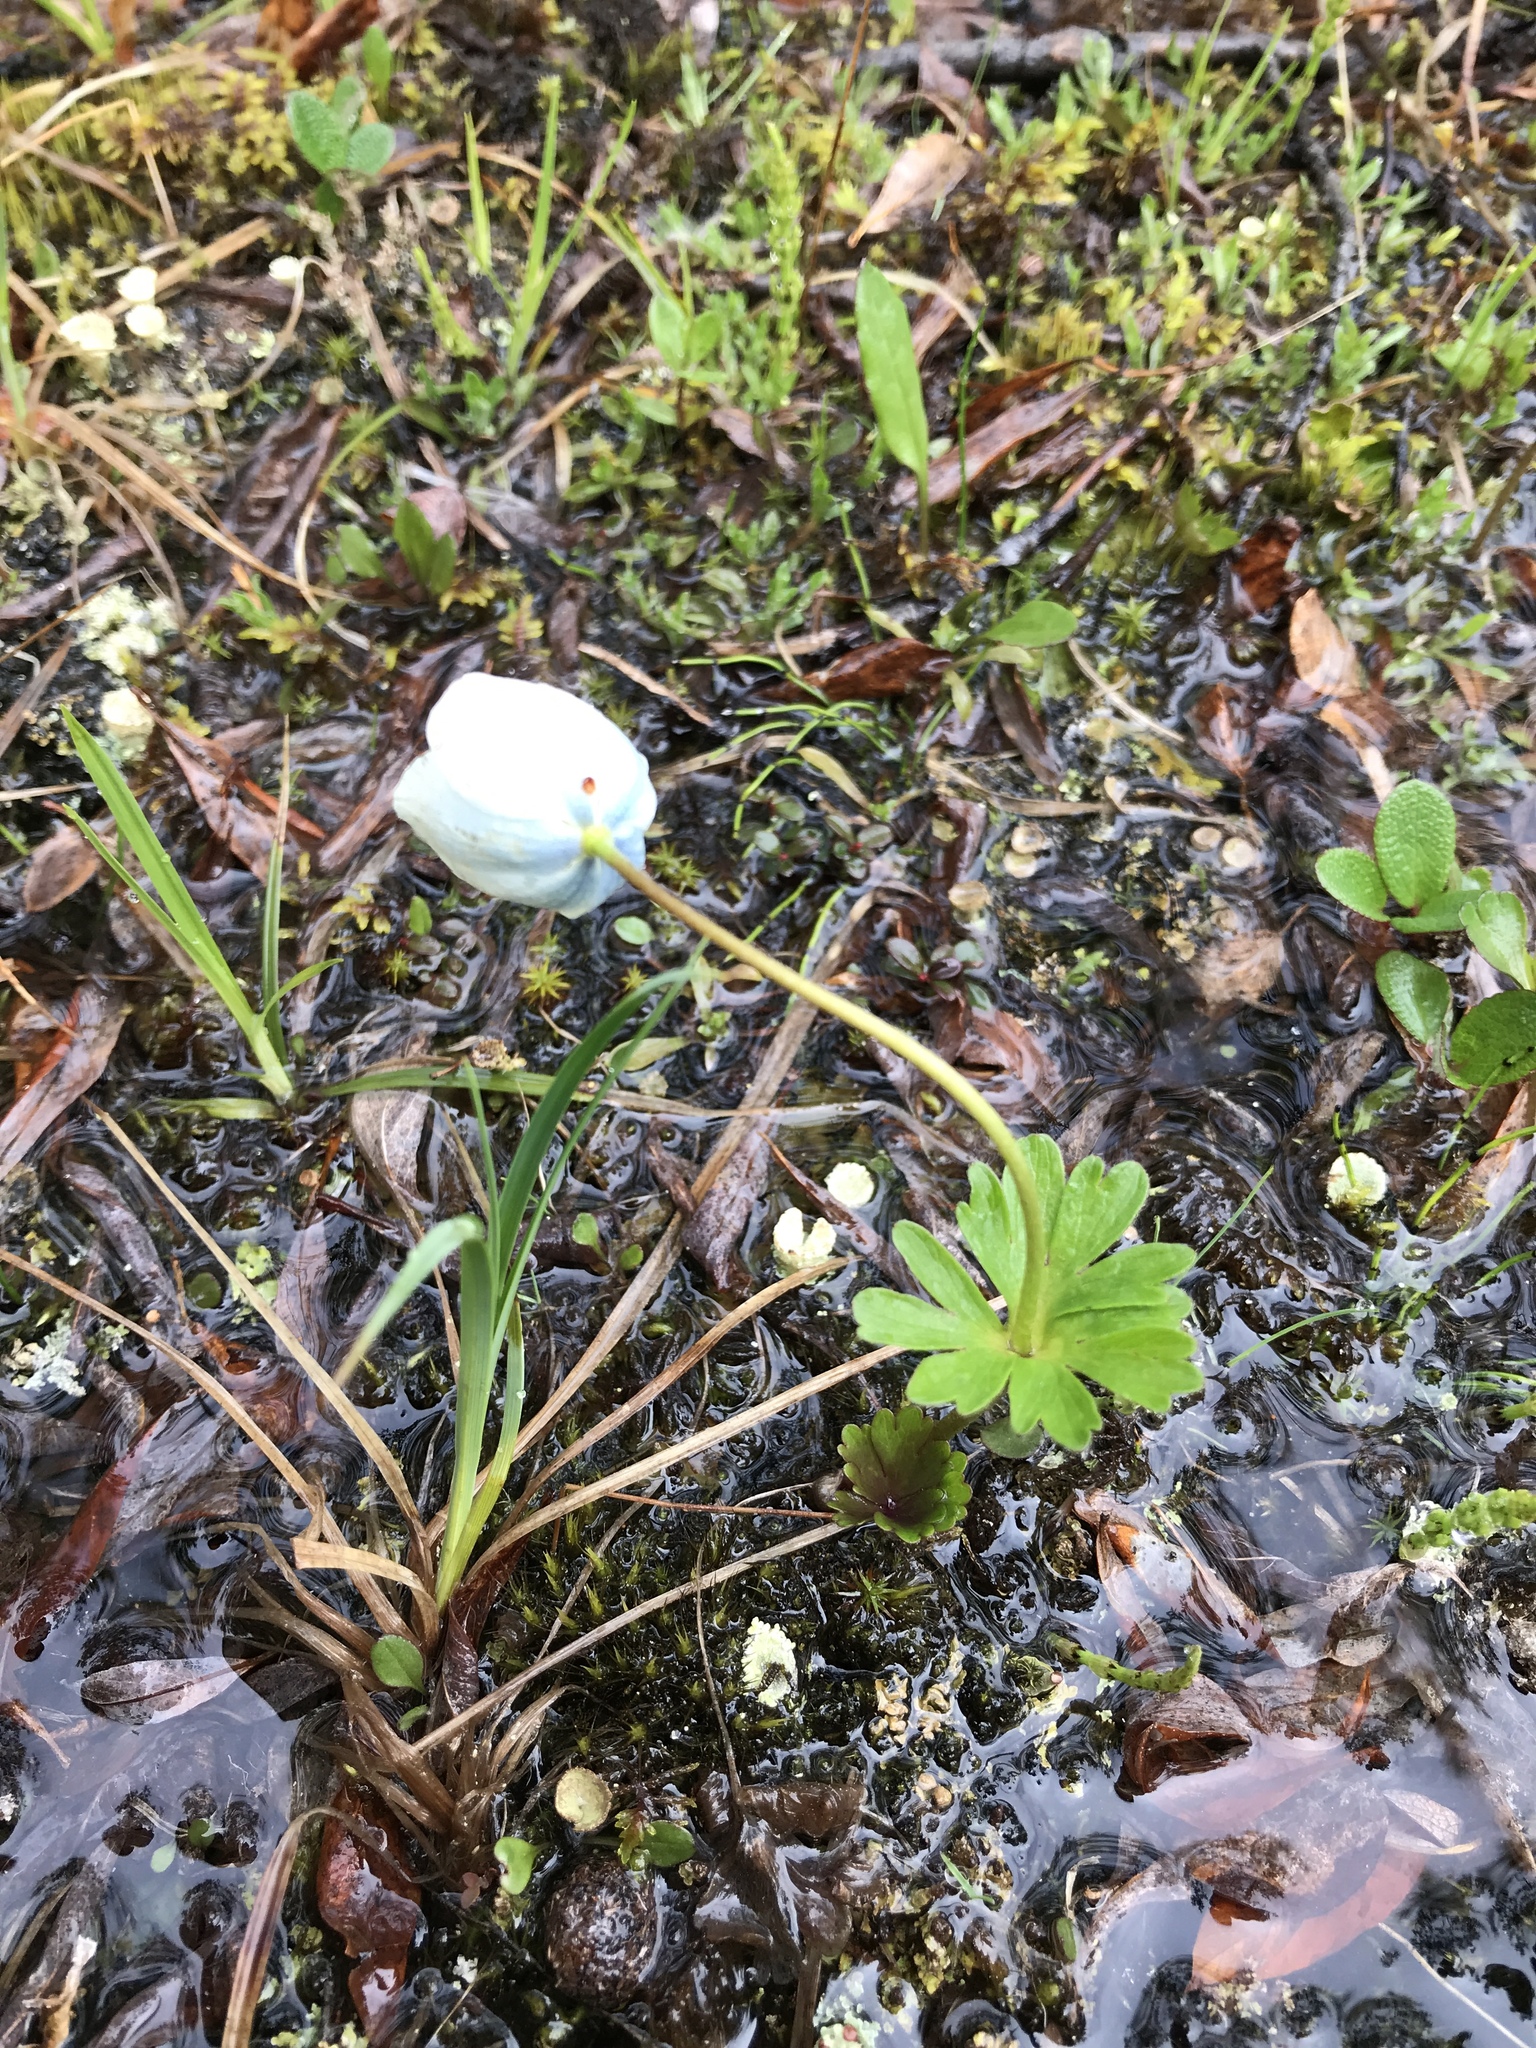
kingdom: Plantae
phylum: Tracheophyta
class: Magnoliopsida
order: Ranunculales
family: Ranunculaceae
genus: Anemone
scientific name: Anemone parviflora
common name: Northern anemone
